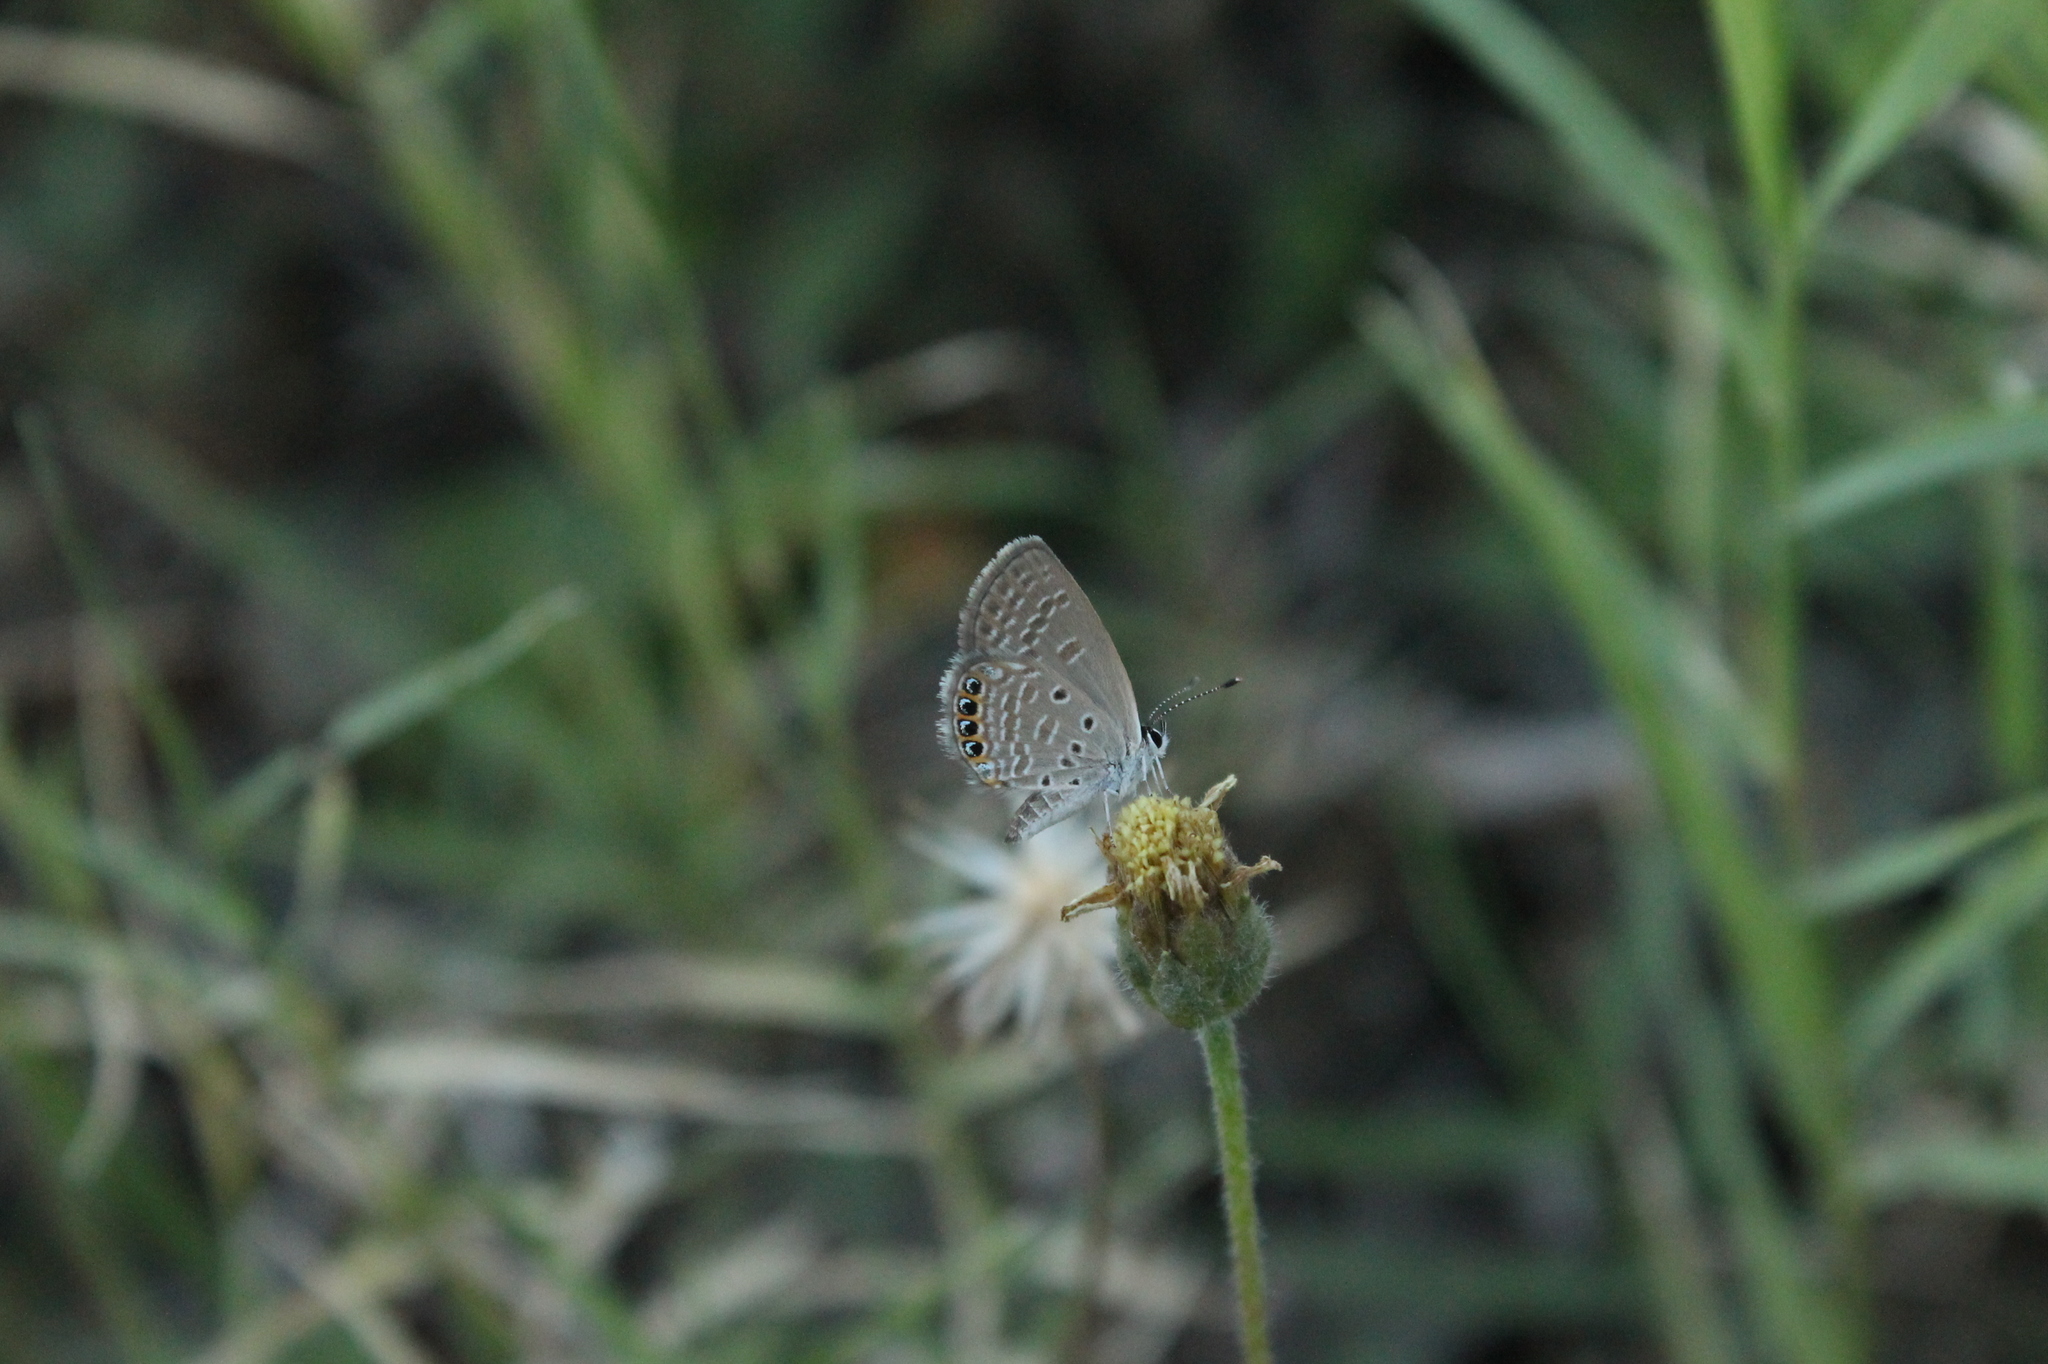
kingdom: Animalia
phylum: Arthropoda
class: Insecta
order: Lepidoptera
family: Lycaenidae
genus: Freyeria
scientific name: Freyeria putli
